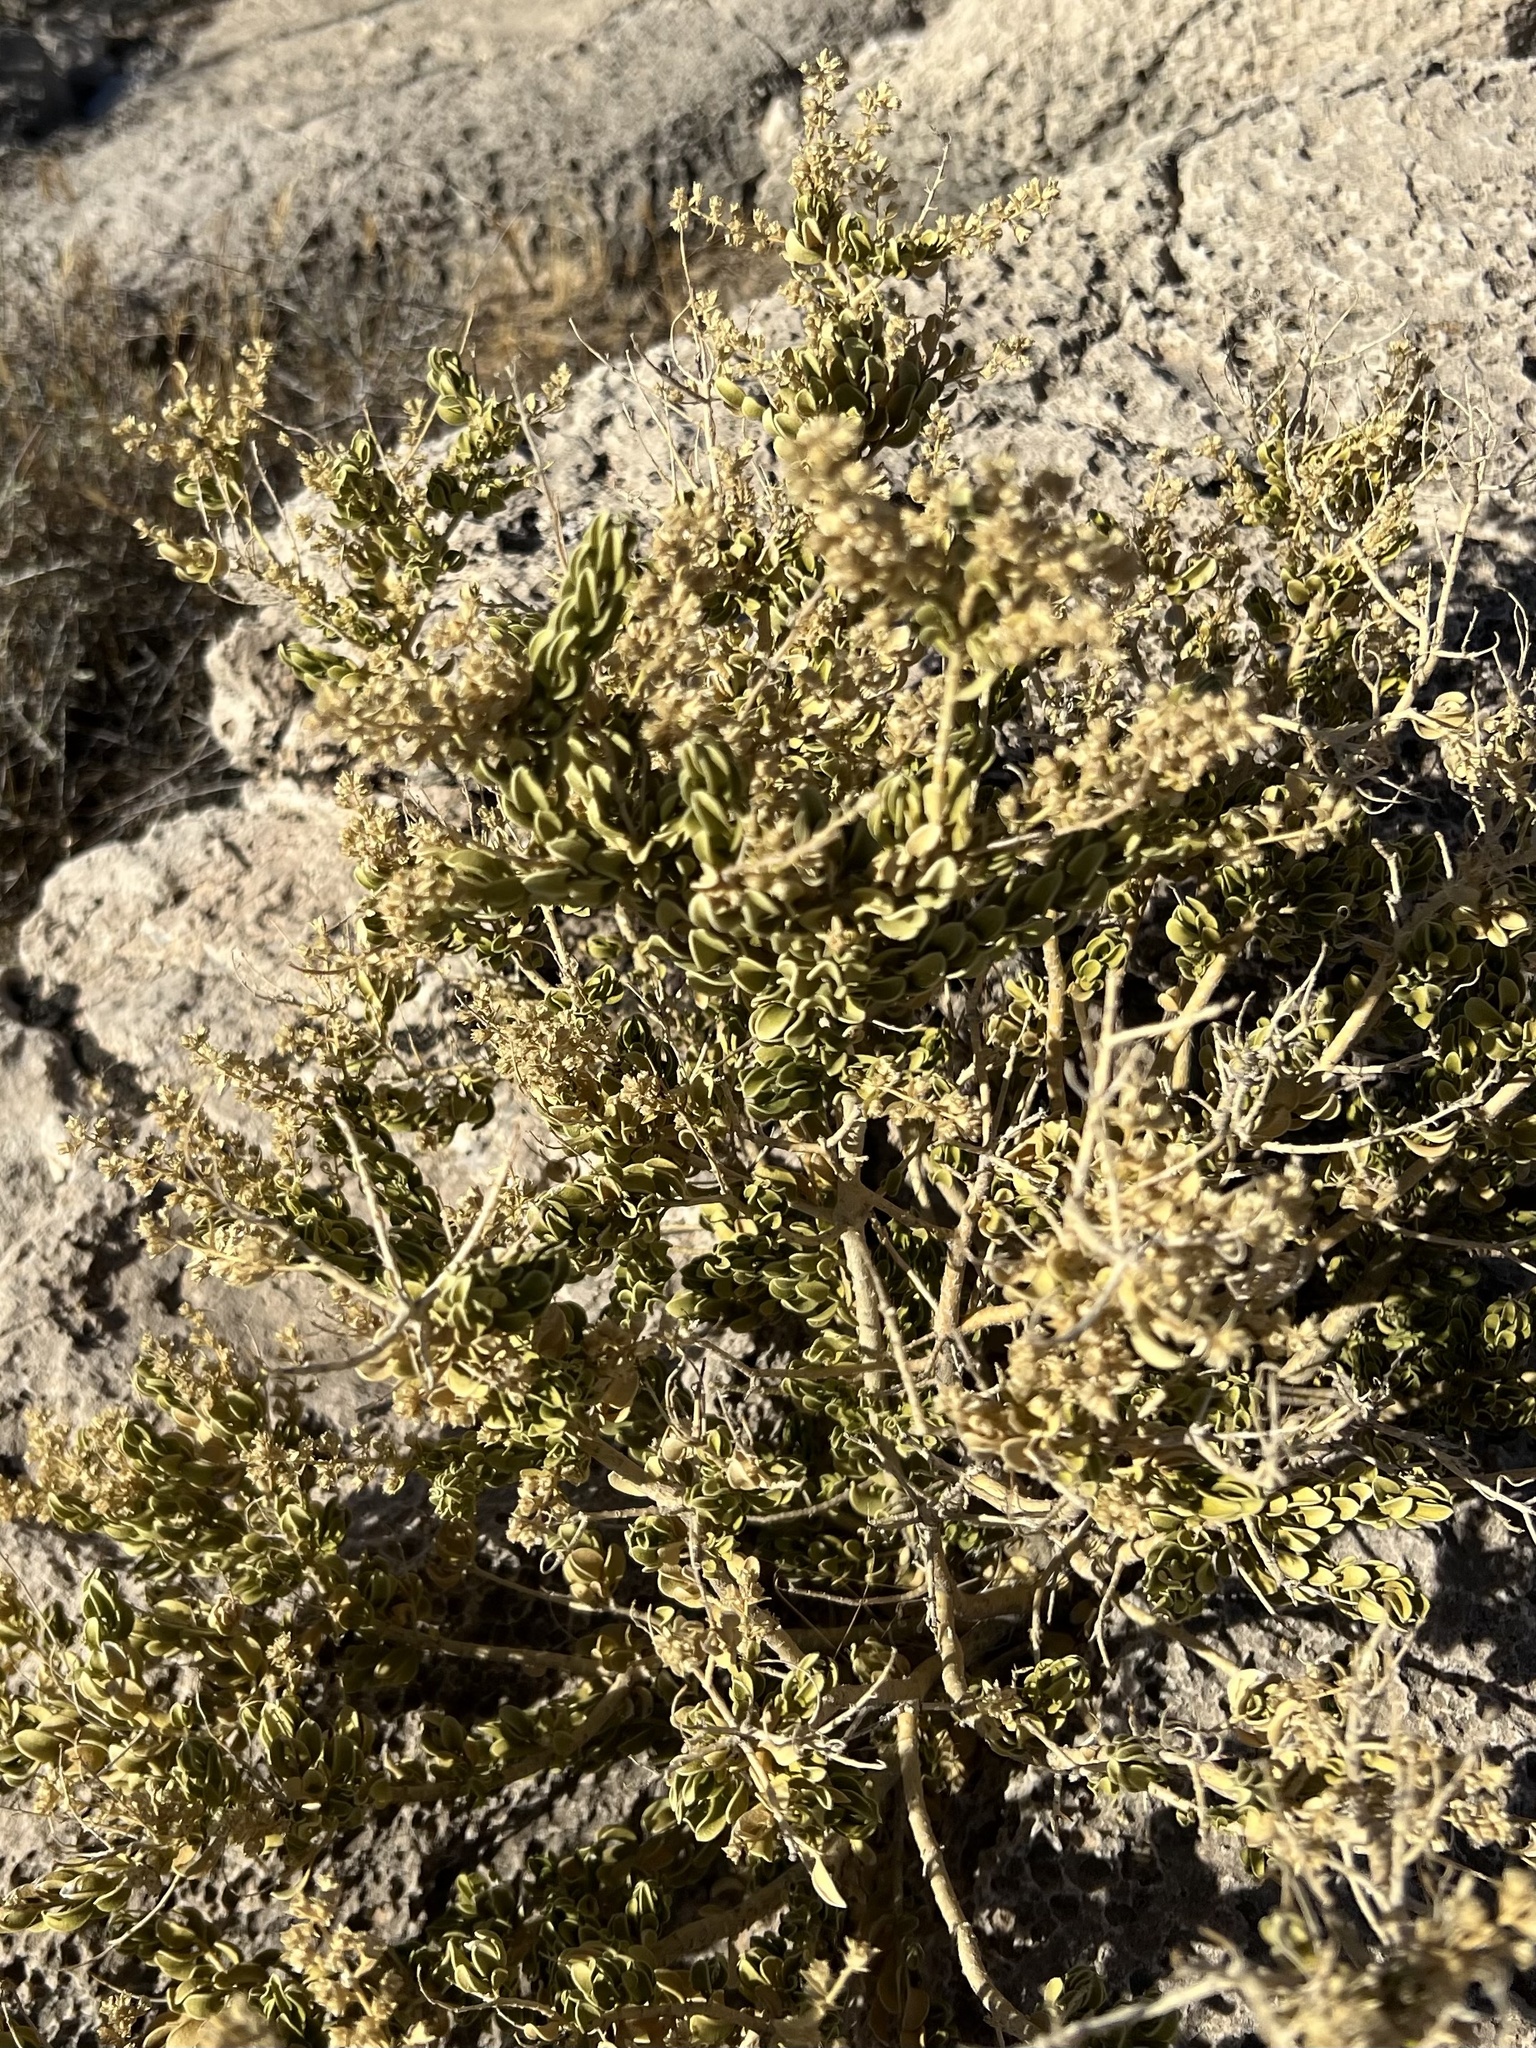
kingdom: Plantae
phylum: Tracheophyta
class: Magnoliopsida
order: Celastrales
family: Celastraceae
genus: Mortonia
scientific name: Mortonia utahensis
